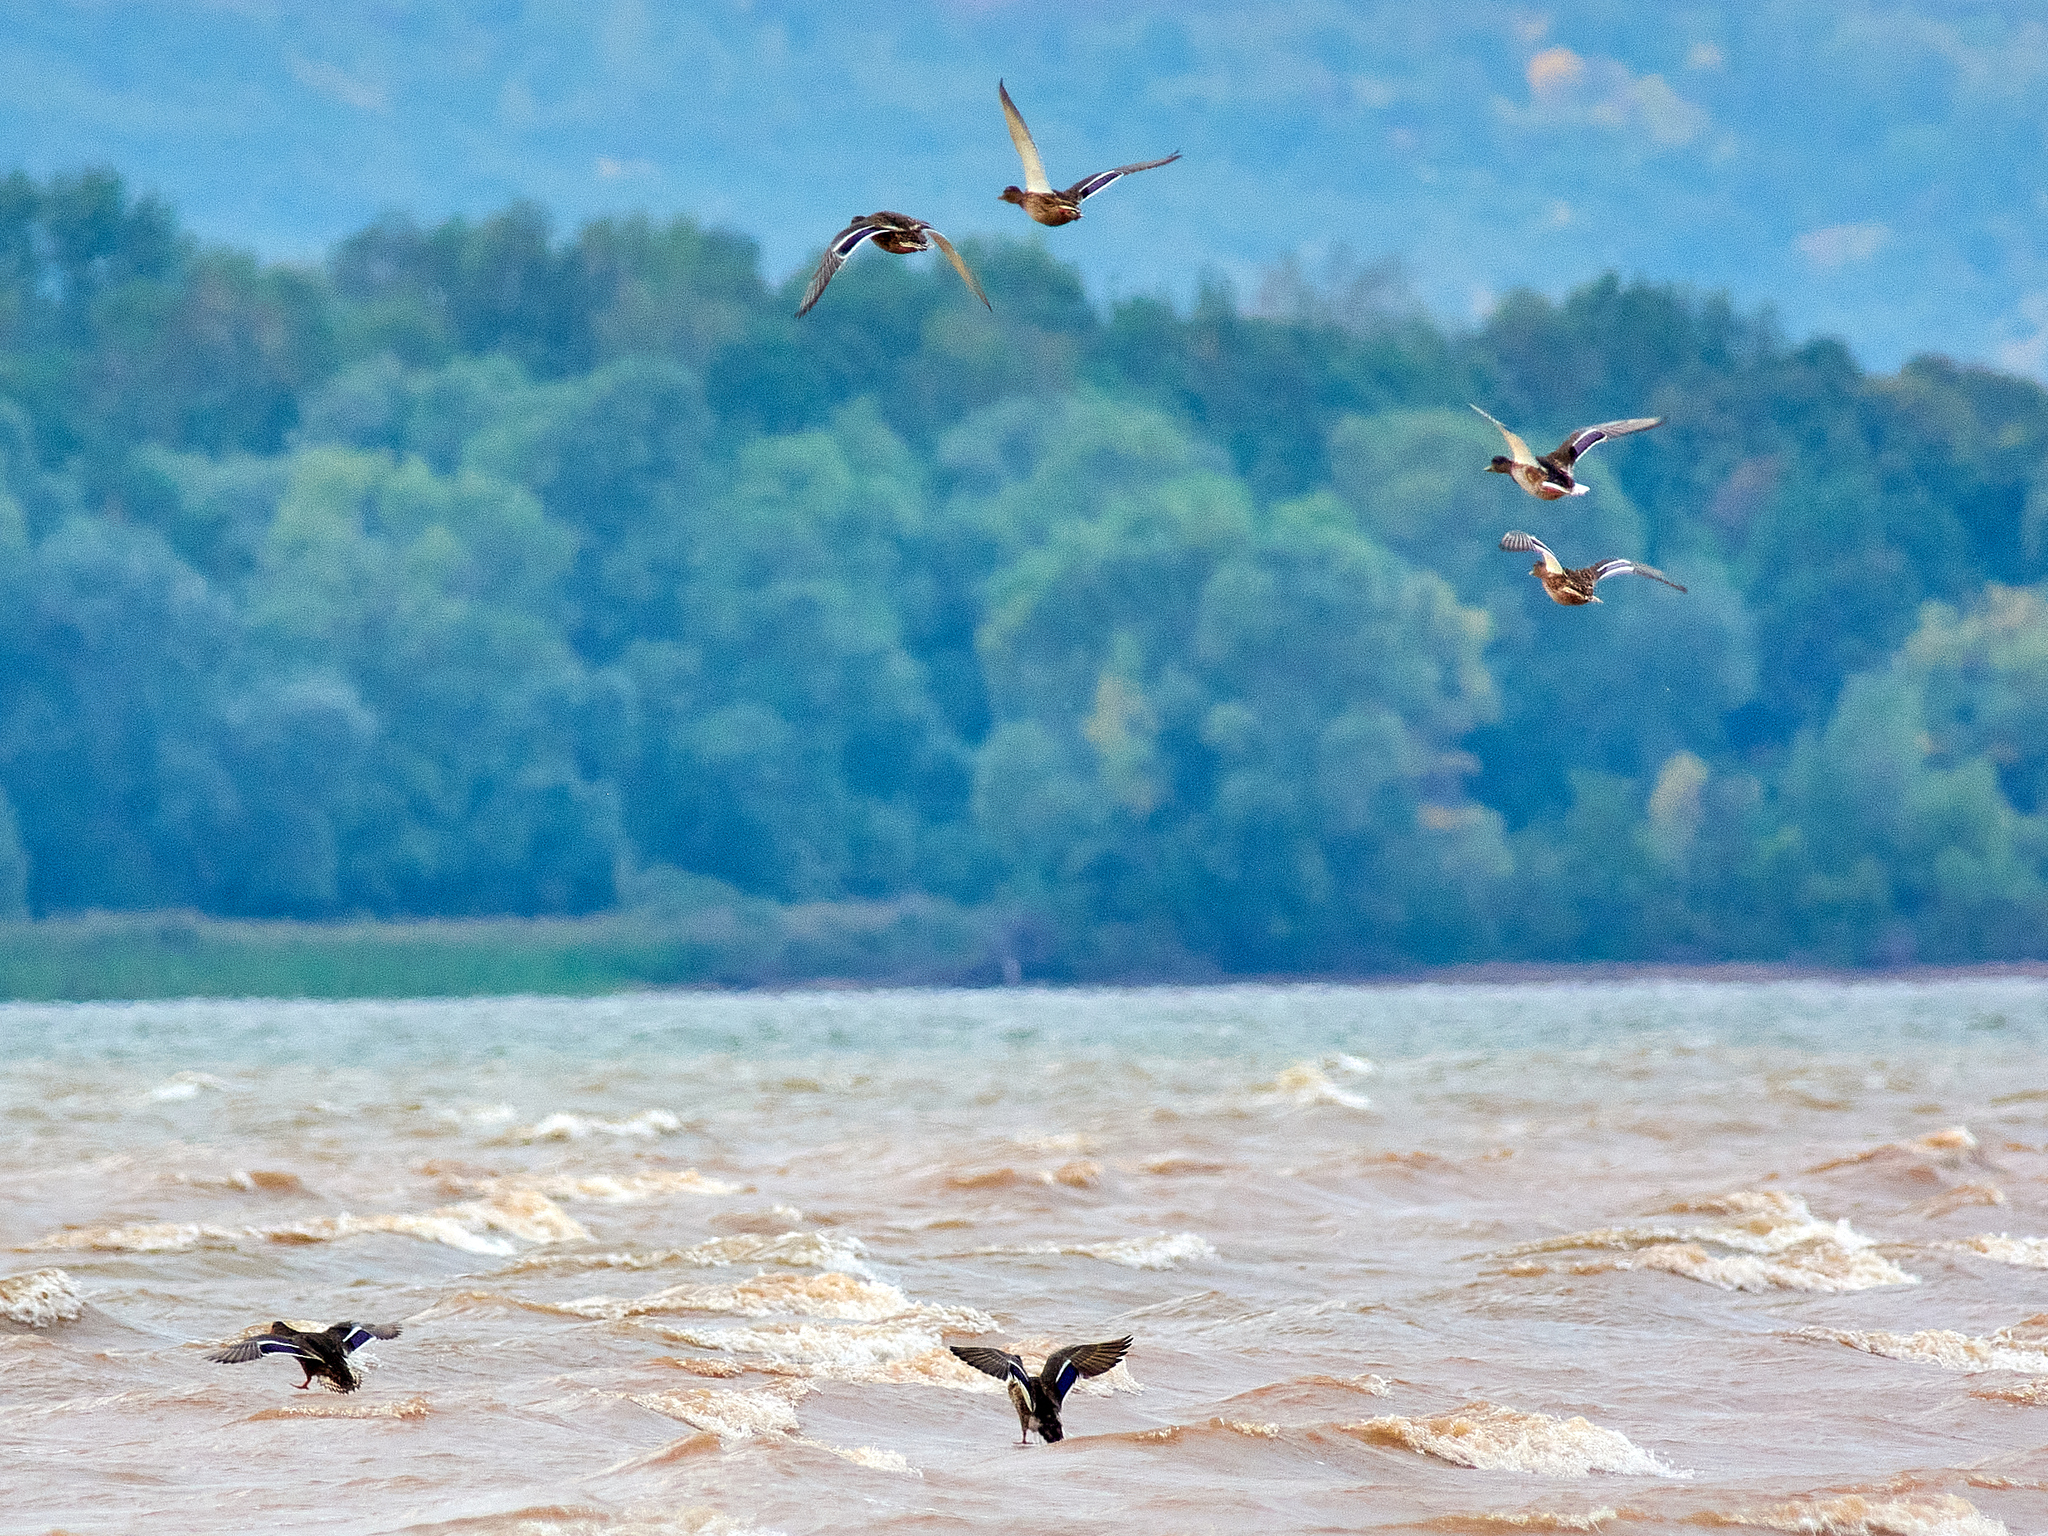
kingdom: Animalia
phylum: Chordata
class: Aves
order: Anseriformes
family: Anatidae
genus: Anas
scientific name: Anas platyrhynchos
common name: Mallard
